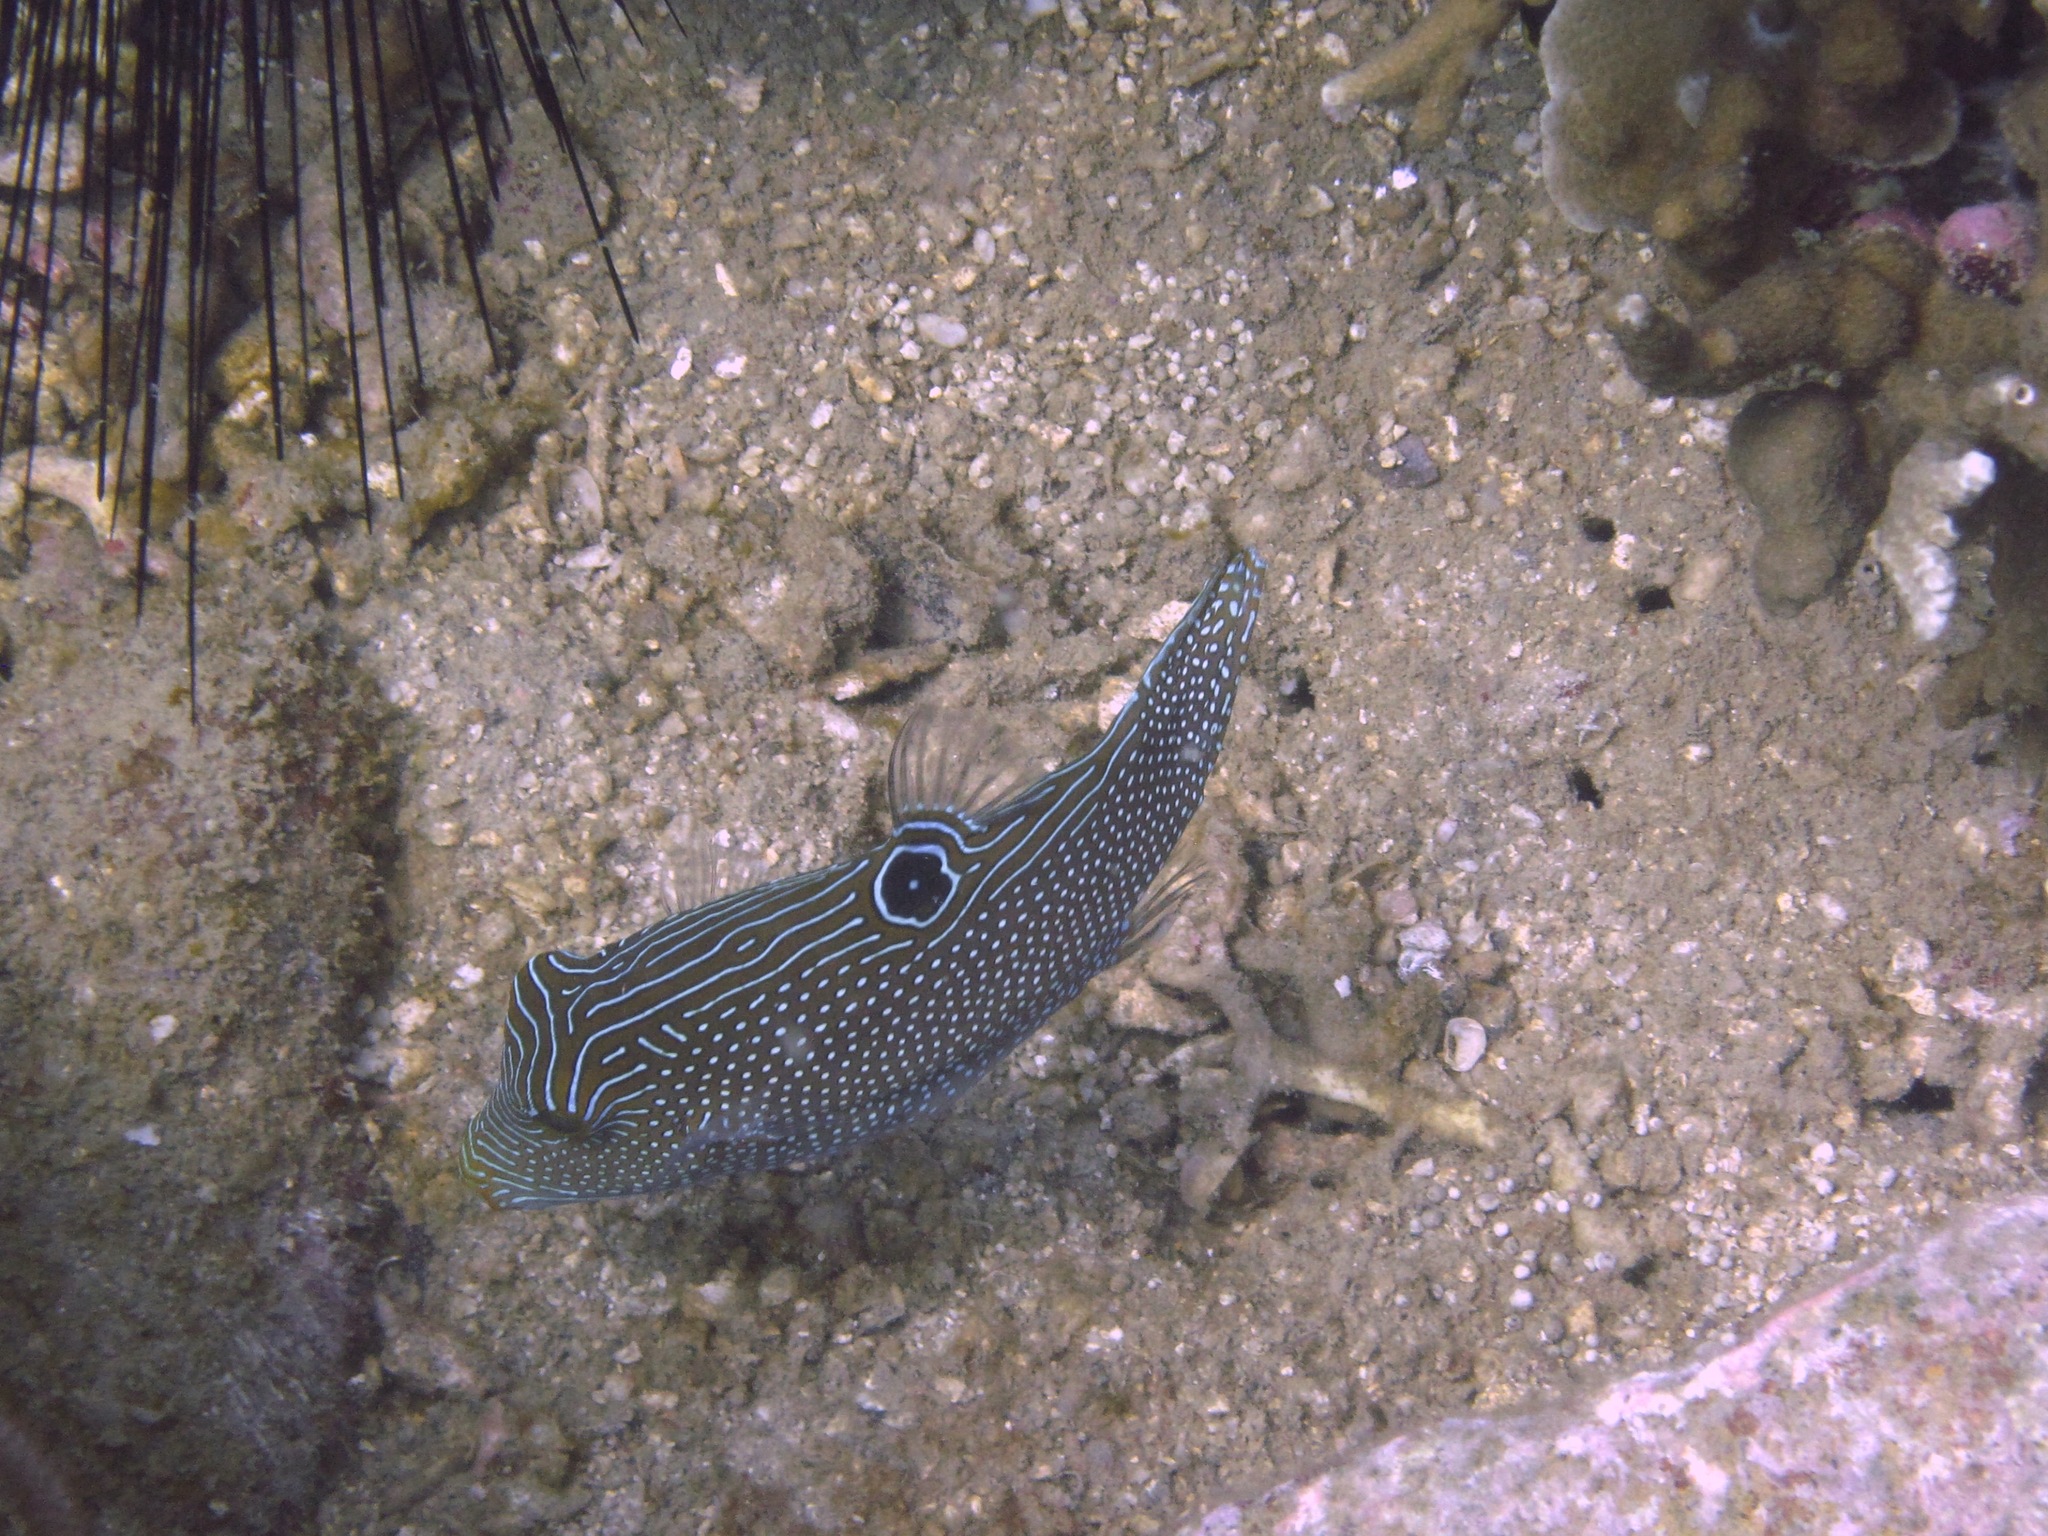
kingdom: Animalia
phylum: Chordata
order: Tetraodontiformes
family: Tetraodontidae
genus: Canthigaster
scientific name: Canthigaster papua
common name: False-eyed pufferfish
